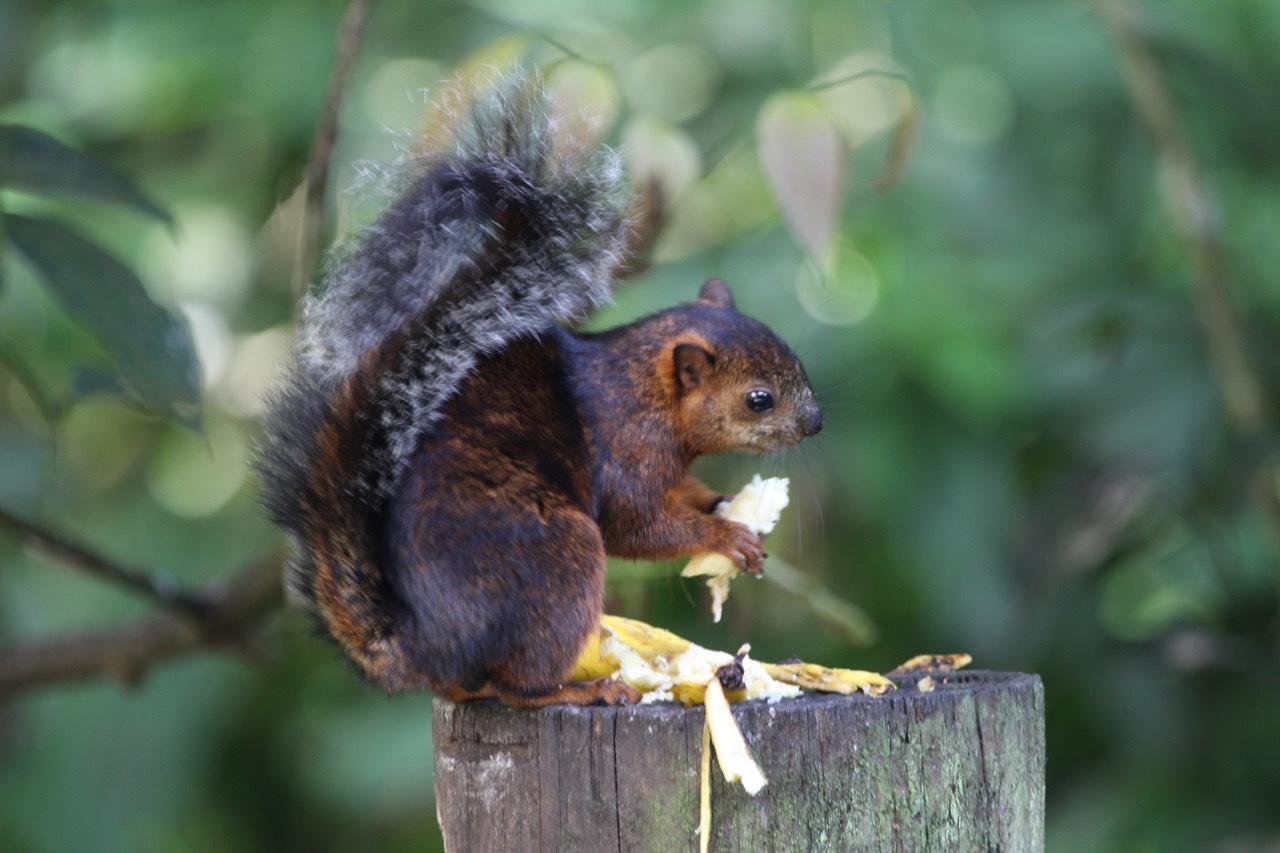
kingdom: Animalia
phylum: Chordata
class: Mammalia
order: Rodentia
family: Sciuridae
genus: Sciurus
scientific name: Sciurus variegatoides
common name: Variegated squirrel
